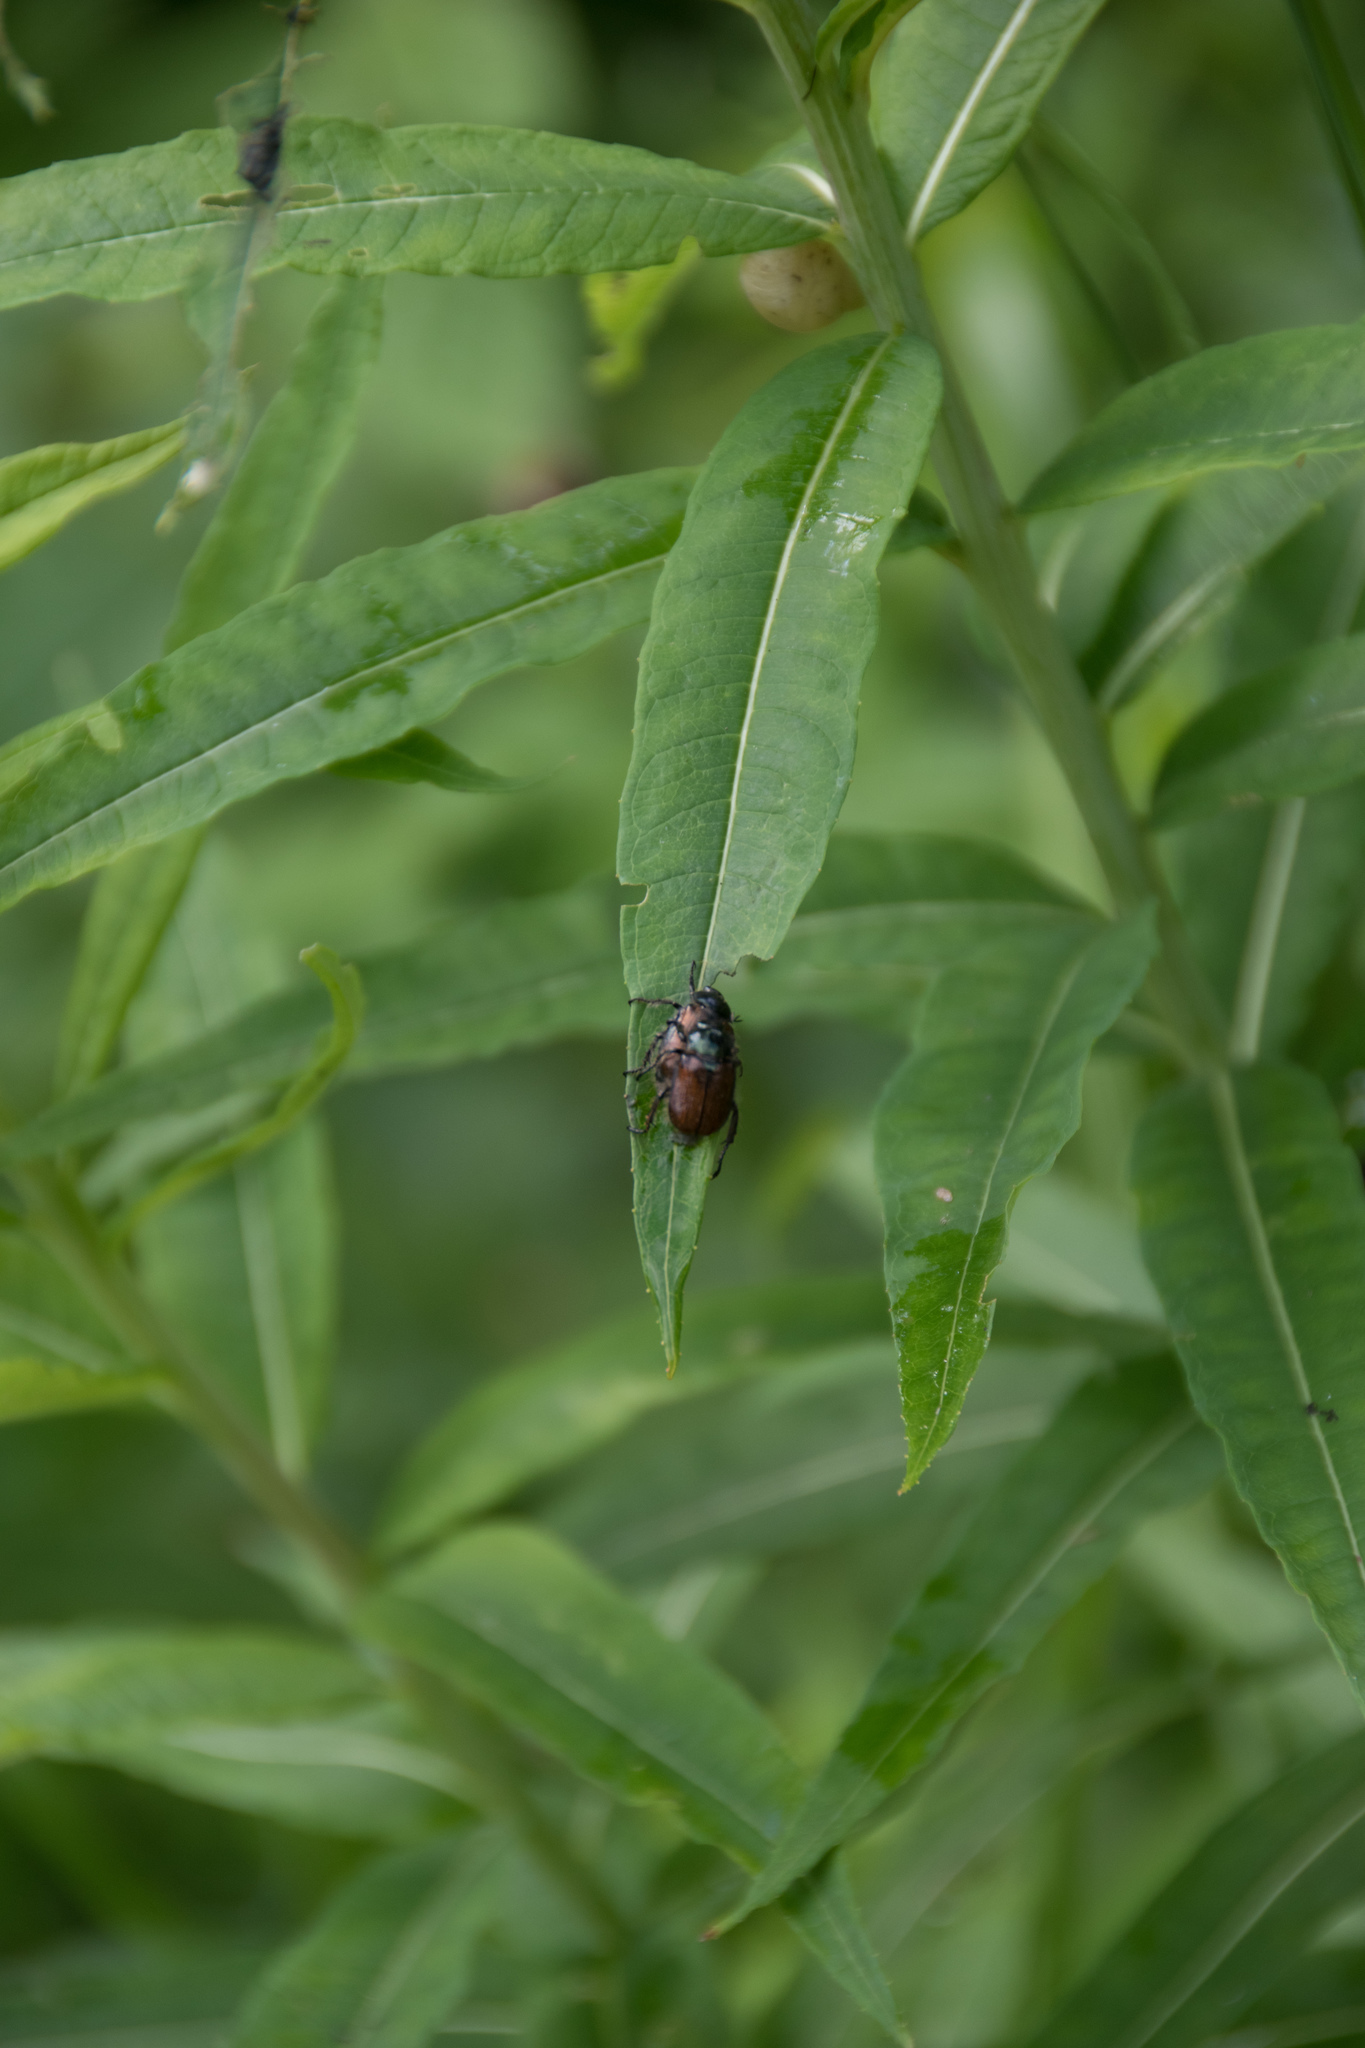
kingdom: Animalia
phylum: Arthropoda
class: Insecta
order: Coleoptera
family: Scarabaeidae
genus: Phyllopertha
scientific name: Phyllopertha horticola
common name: Garden chafer
